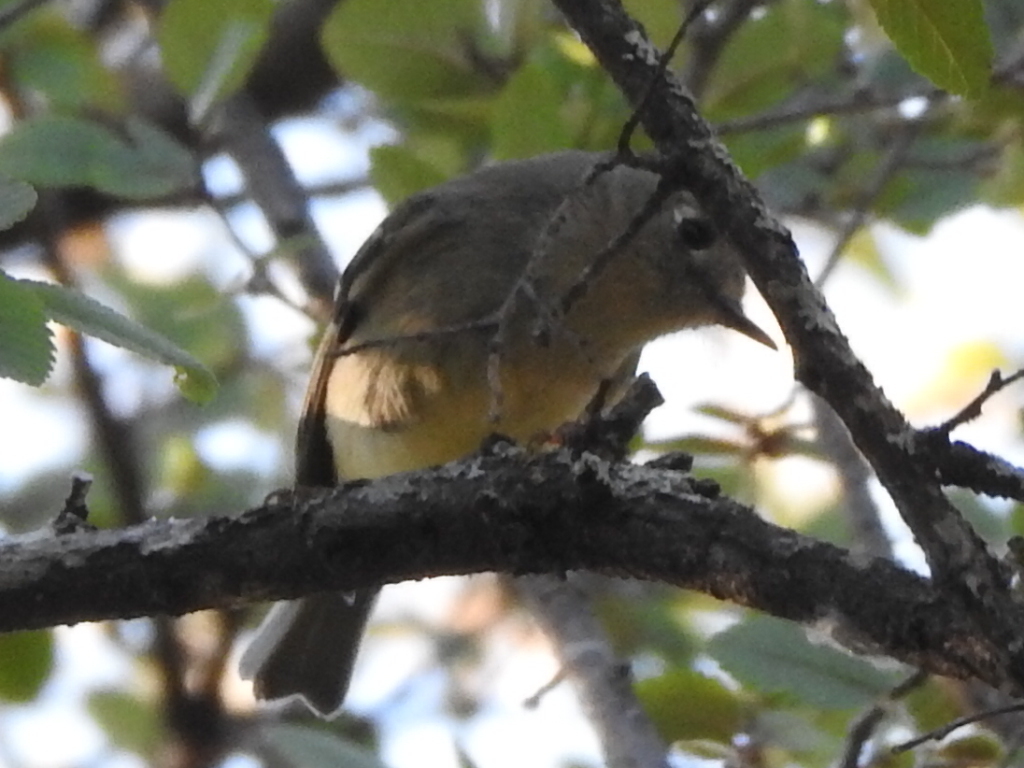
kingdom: Animalia
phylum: Chordata
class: Aves
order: Passeriformes
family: Regulidae
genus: Regulus
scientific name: Regulus calendula
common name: Ruby-crowned kinglet
